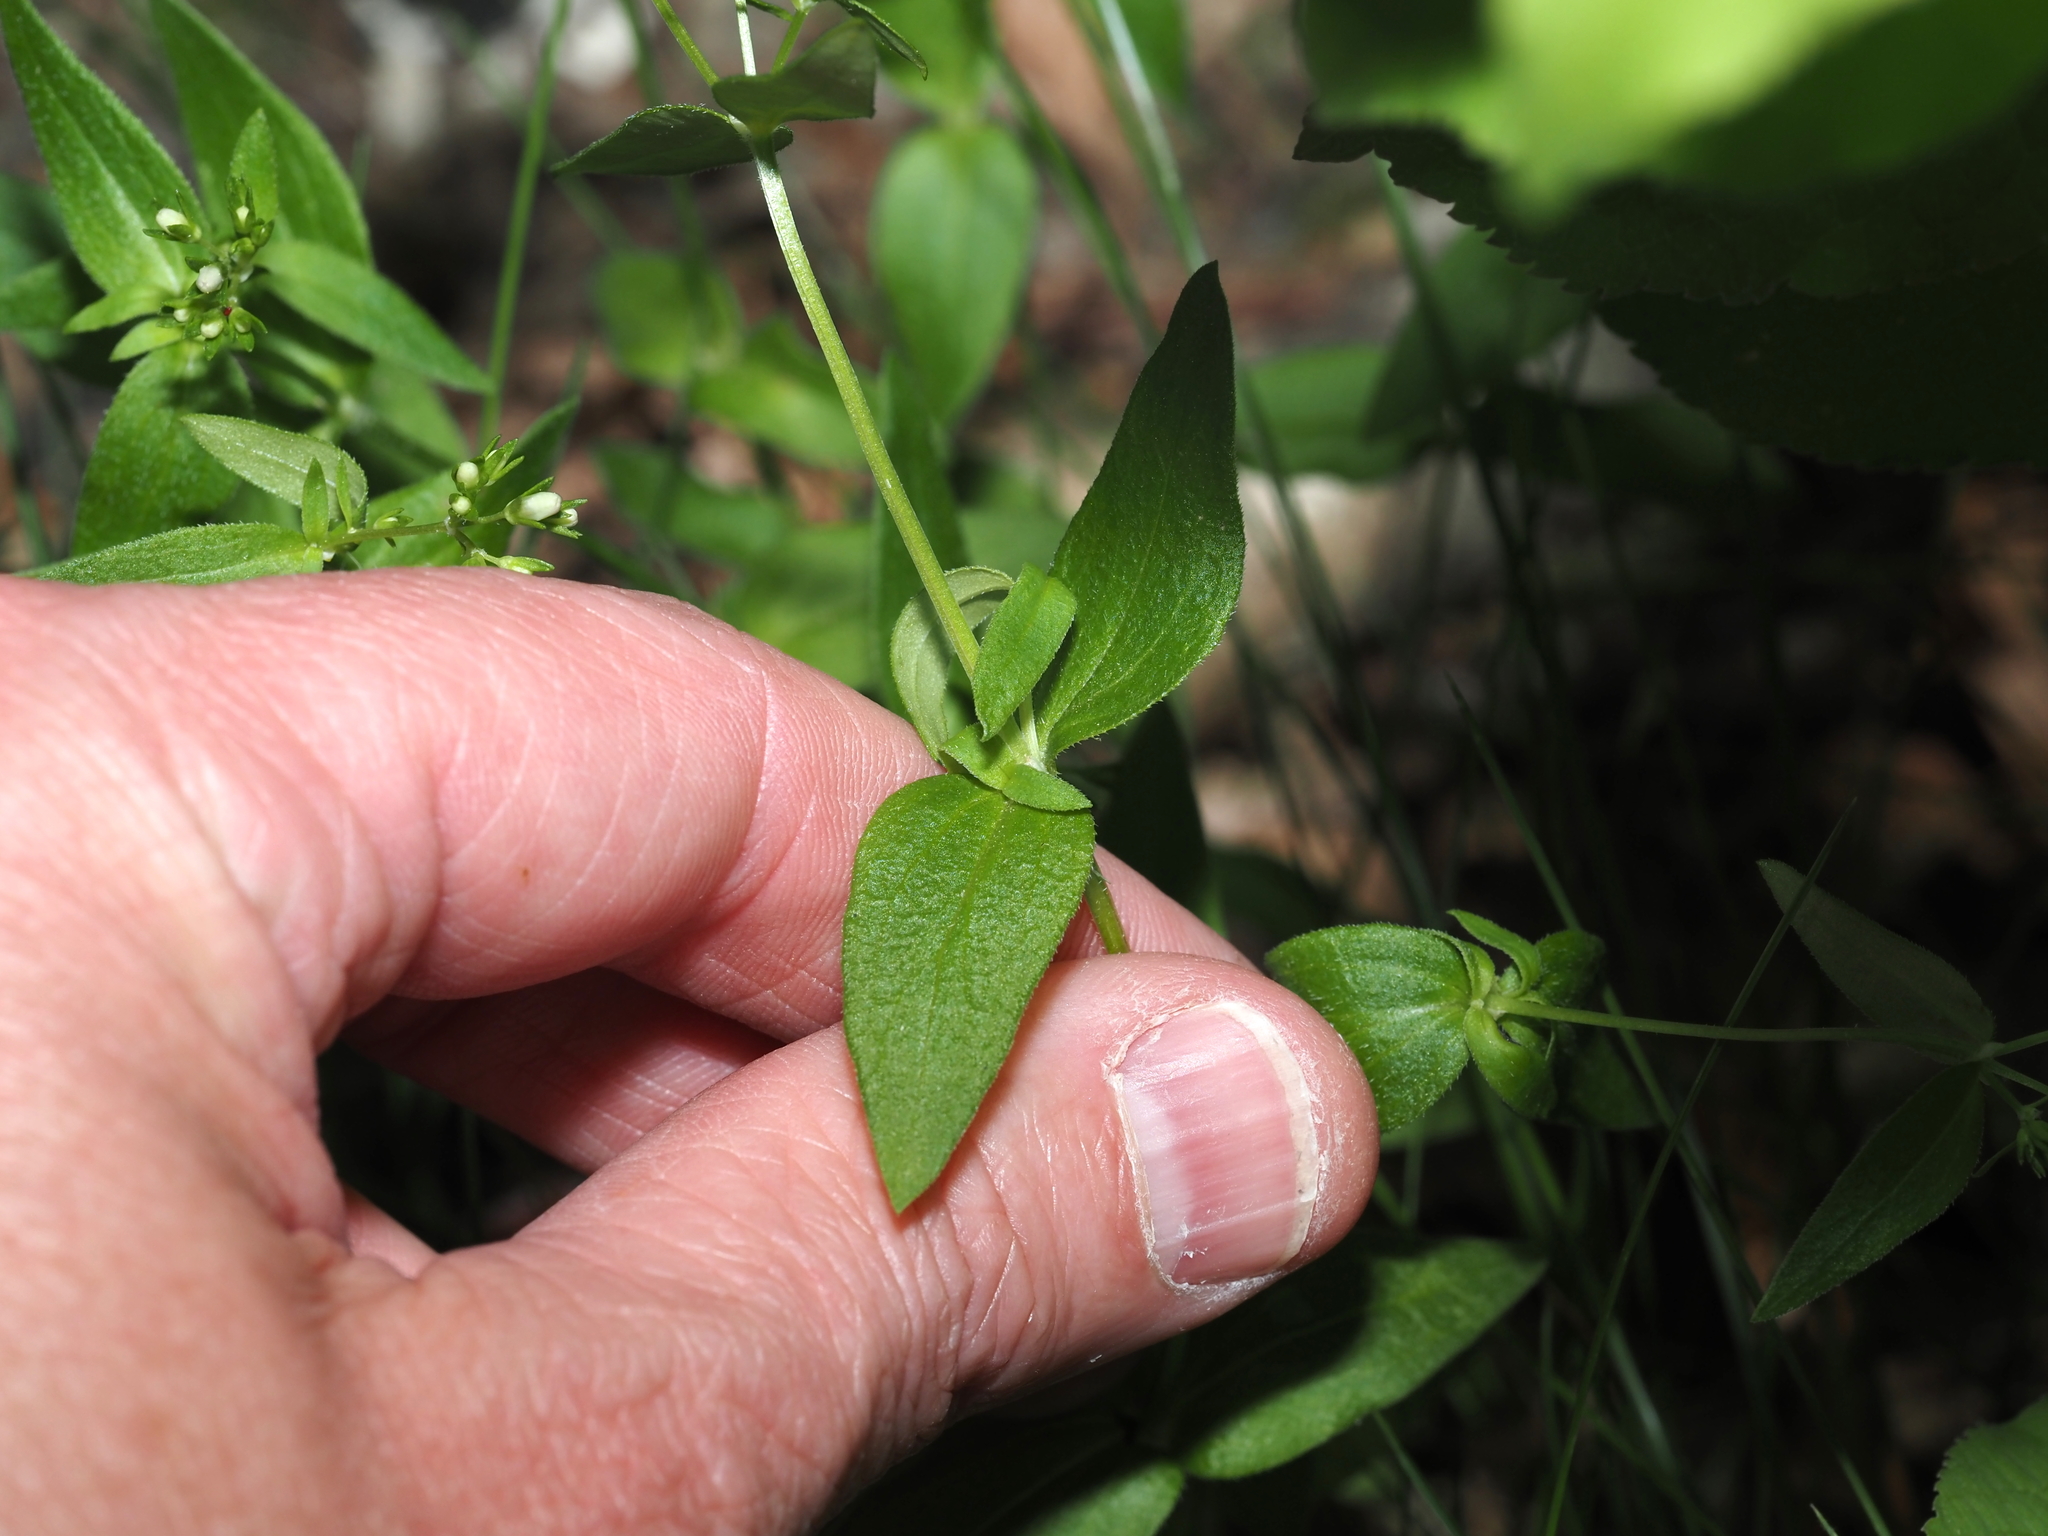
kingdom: Plantae
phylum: Tracheophyta
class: Magnoliopsida
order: Gentianales
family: Rubiaceae
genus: Houstonia
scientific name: Houstonia purpurea
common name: Summer bluet
